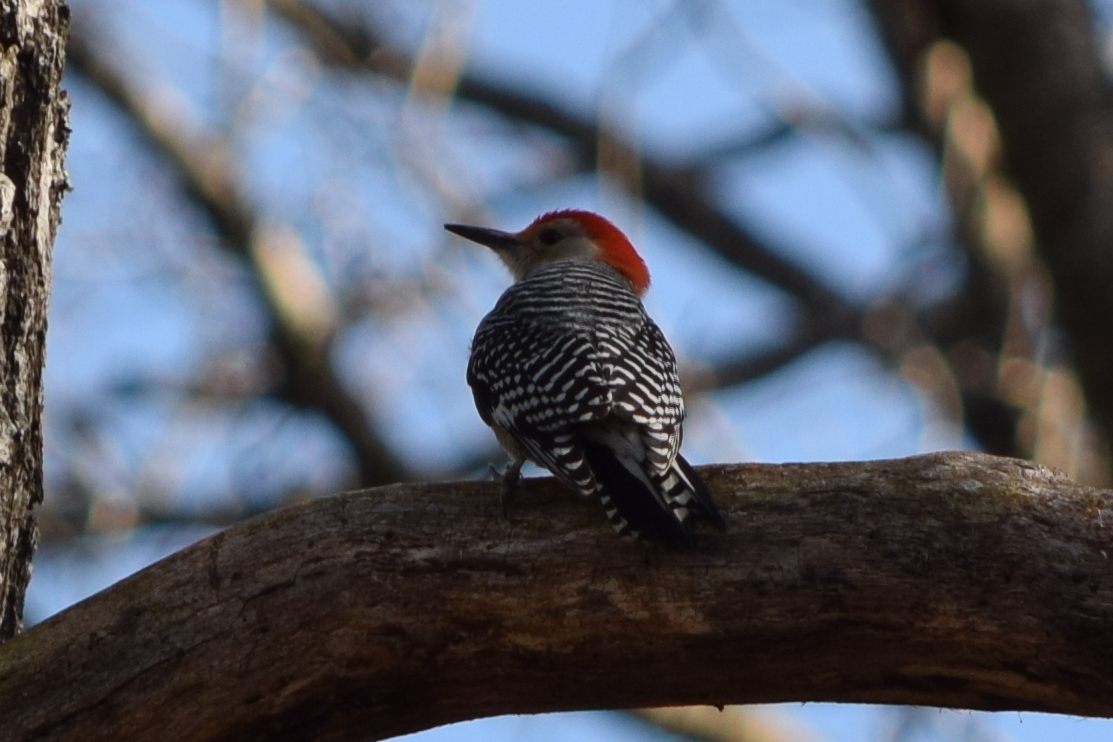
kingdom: Animalia
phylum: Chordata
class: Aves
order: Piciformes
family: Picidae
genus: Melanerpes
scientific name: Melanerpes carolinus
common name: Red-bellied woodpecker
